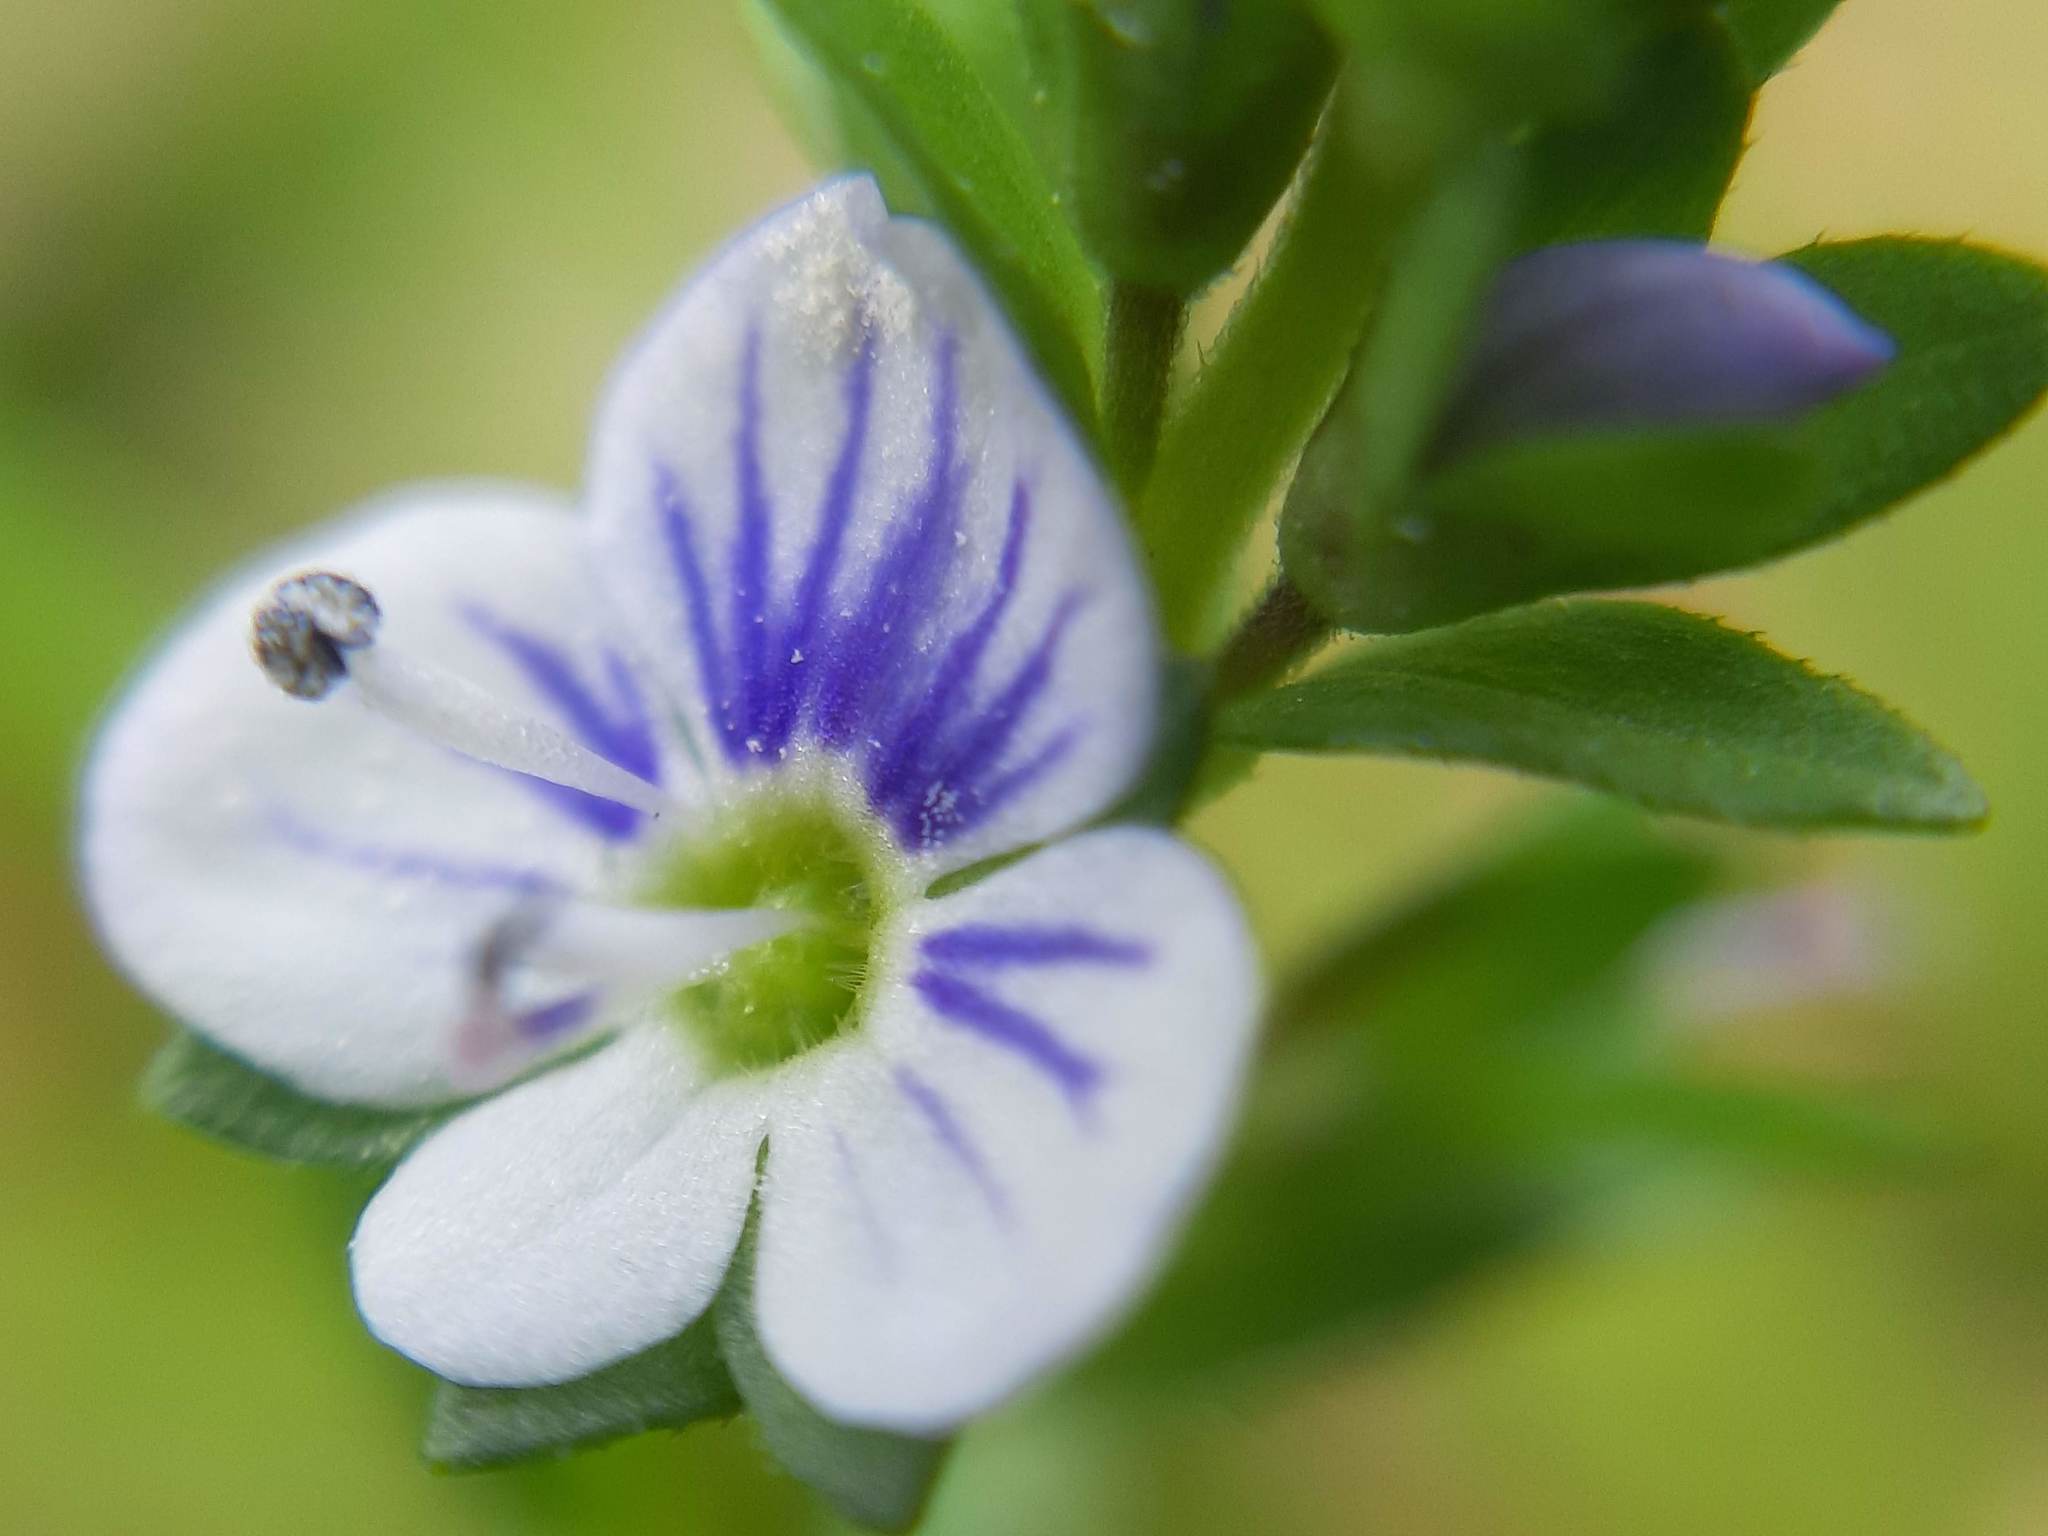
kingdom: Plantae
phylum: Tracheophyta
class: Magnoliopsida
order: Lamiales
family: Plantaginaceae
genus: Veronica
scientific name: Veronica serpyllifolia
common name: Thyme-leaved speedwell
